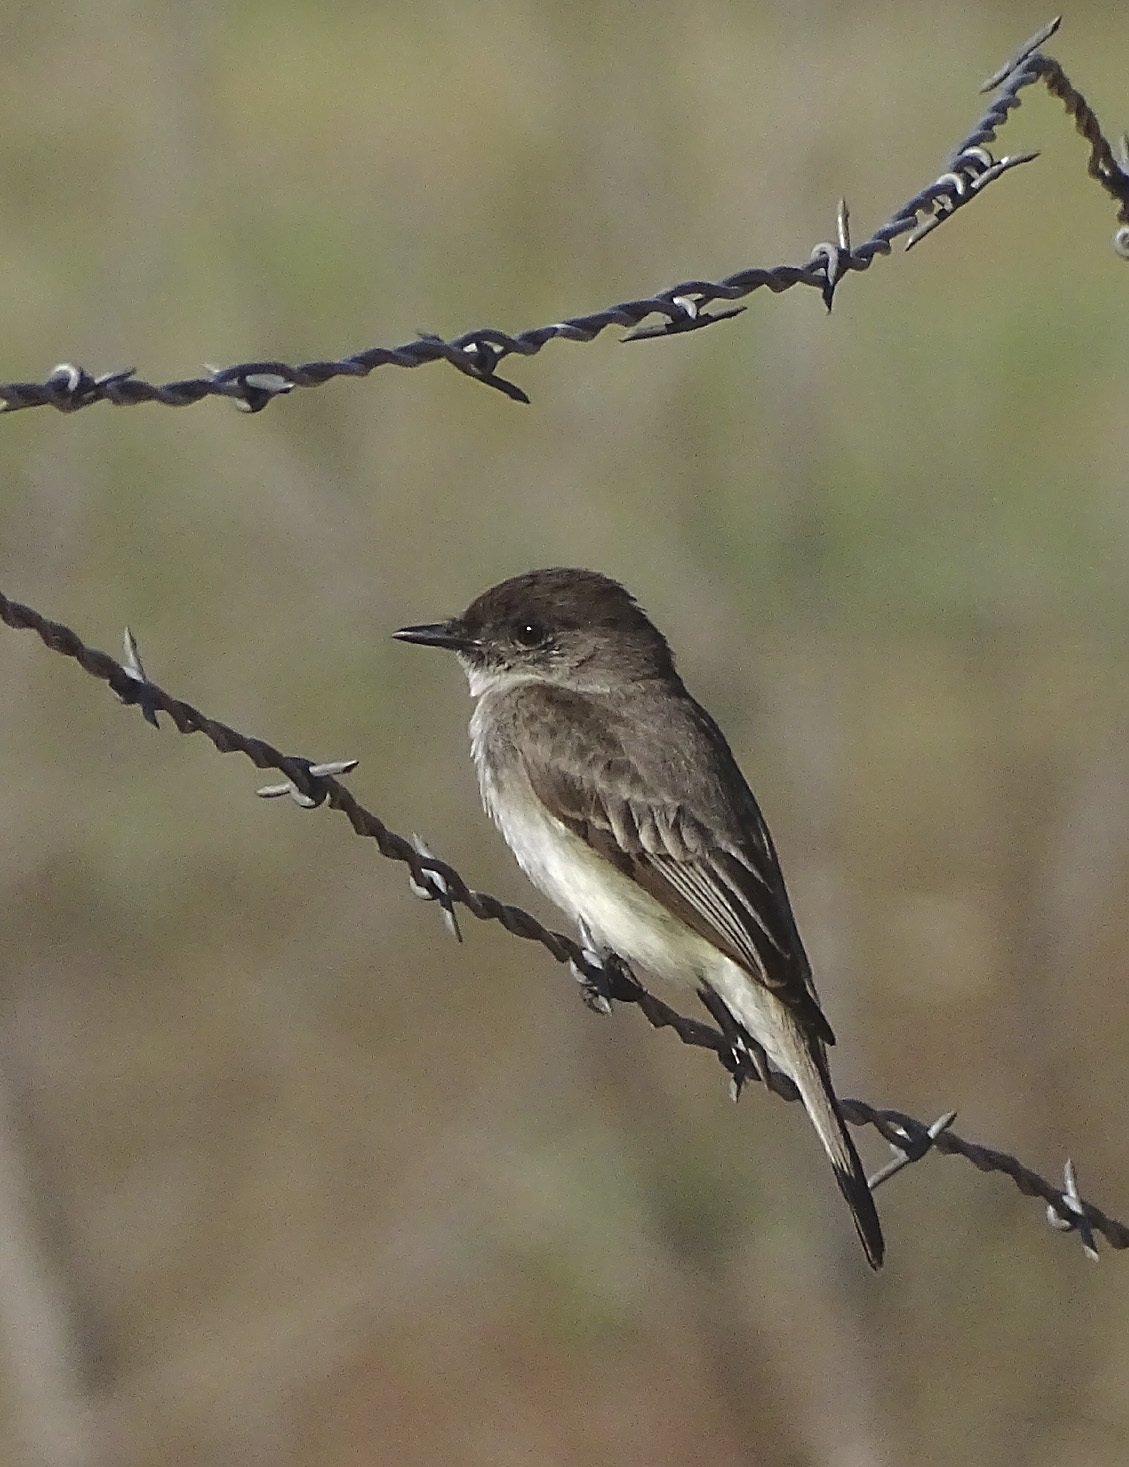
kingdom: Animalia
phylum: Chordata
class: Aves
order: Passeriformes
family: Tyrannidae
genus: Sayornis
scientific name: Sayornis phoebe
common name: Eastern phoebe
